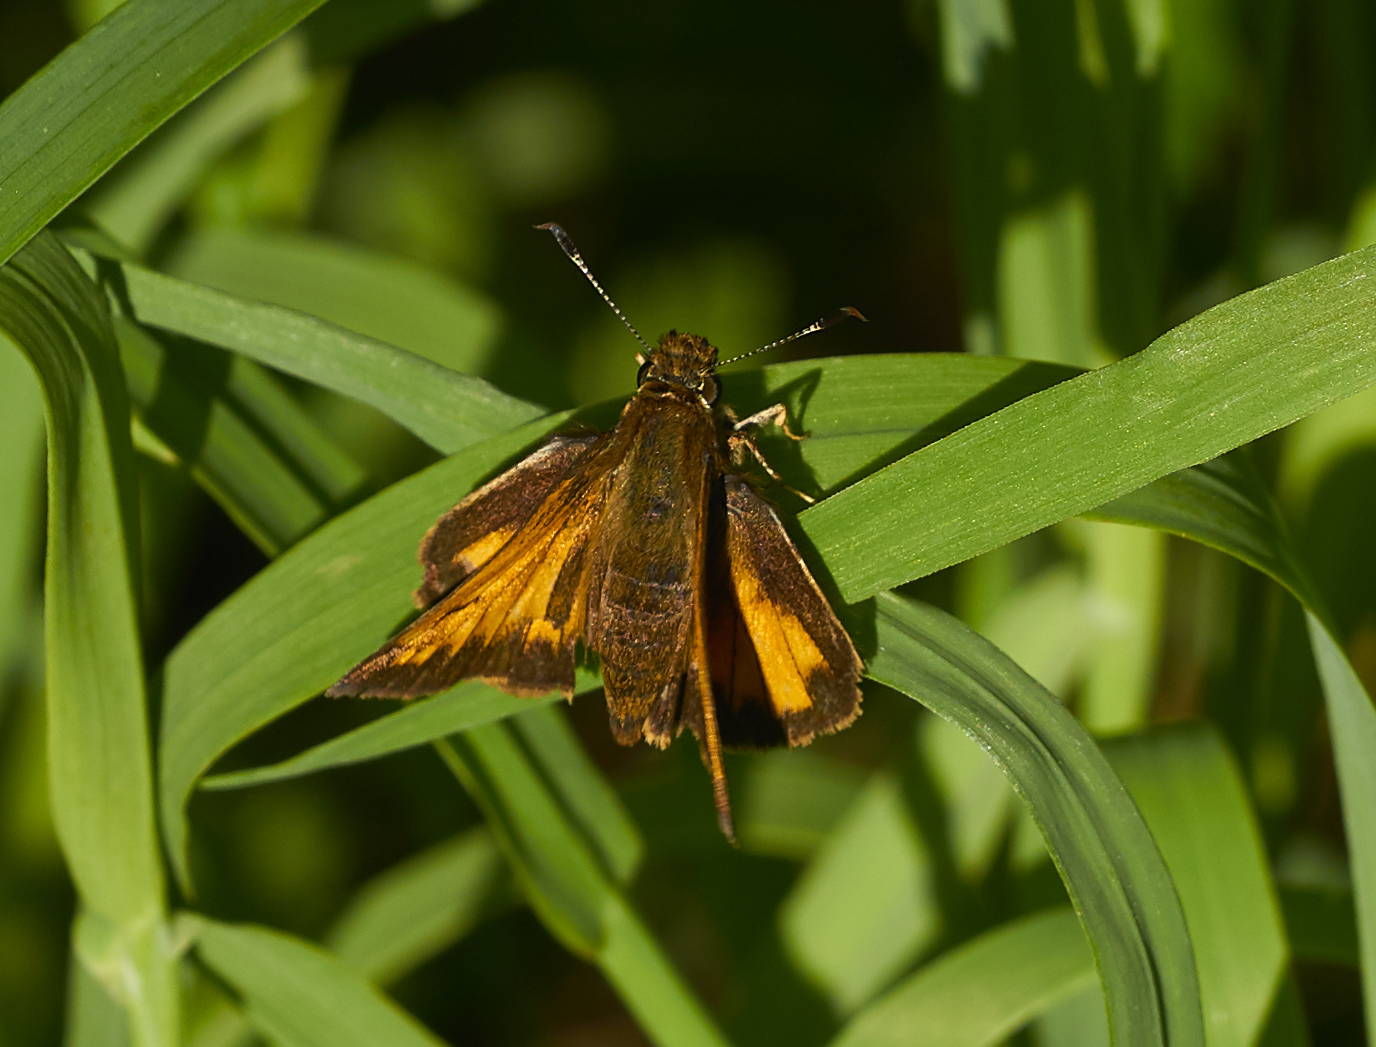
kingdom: Animalia
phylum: Arthropoda
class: Insecta
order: Lepidoptera
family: Hesperiidae
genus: Lon
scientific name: Lon hobomok
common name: Hobomok skipper
